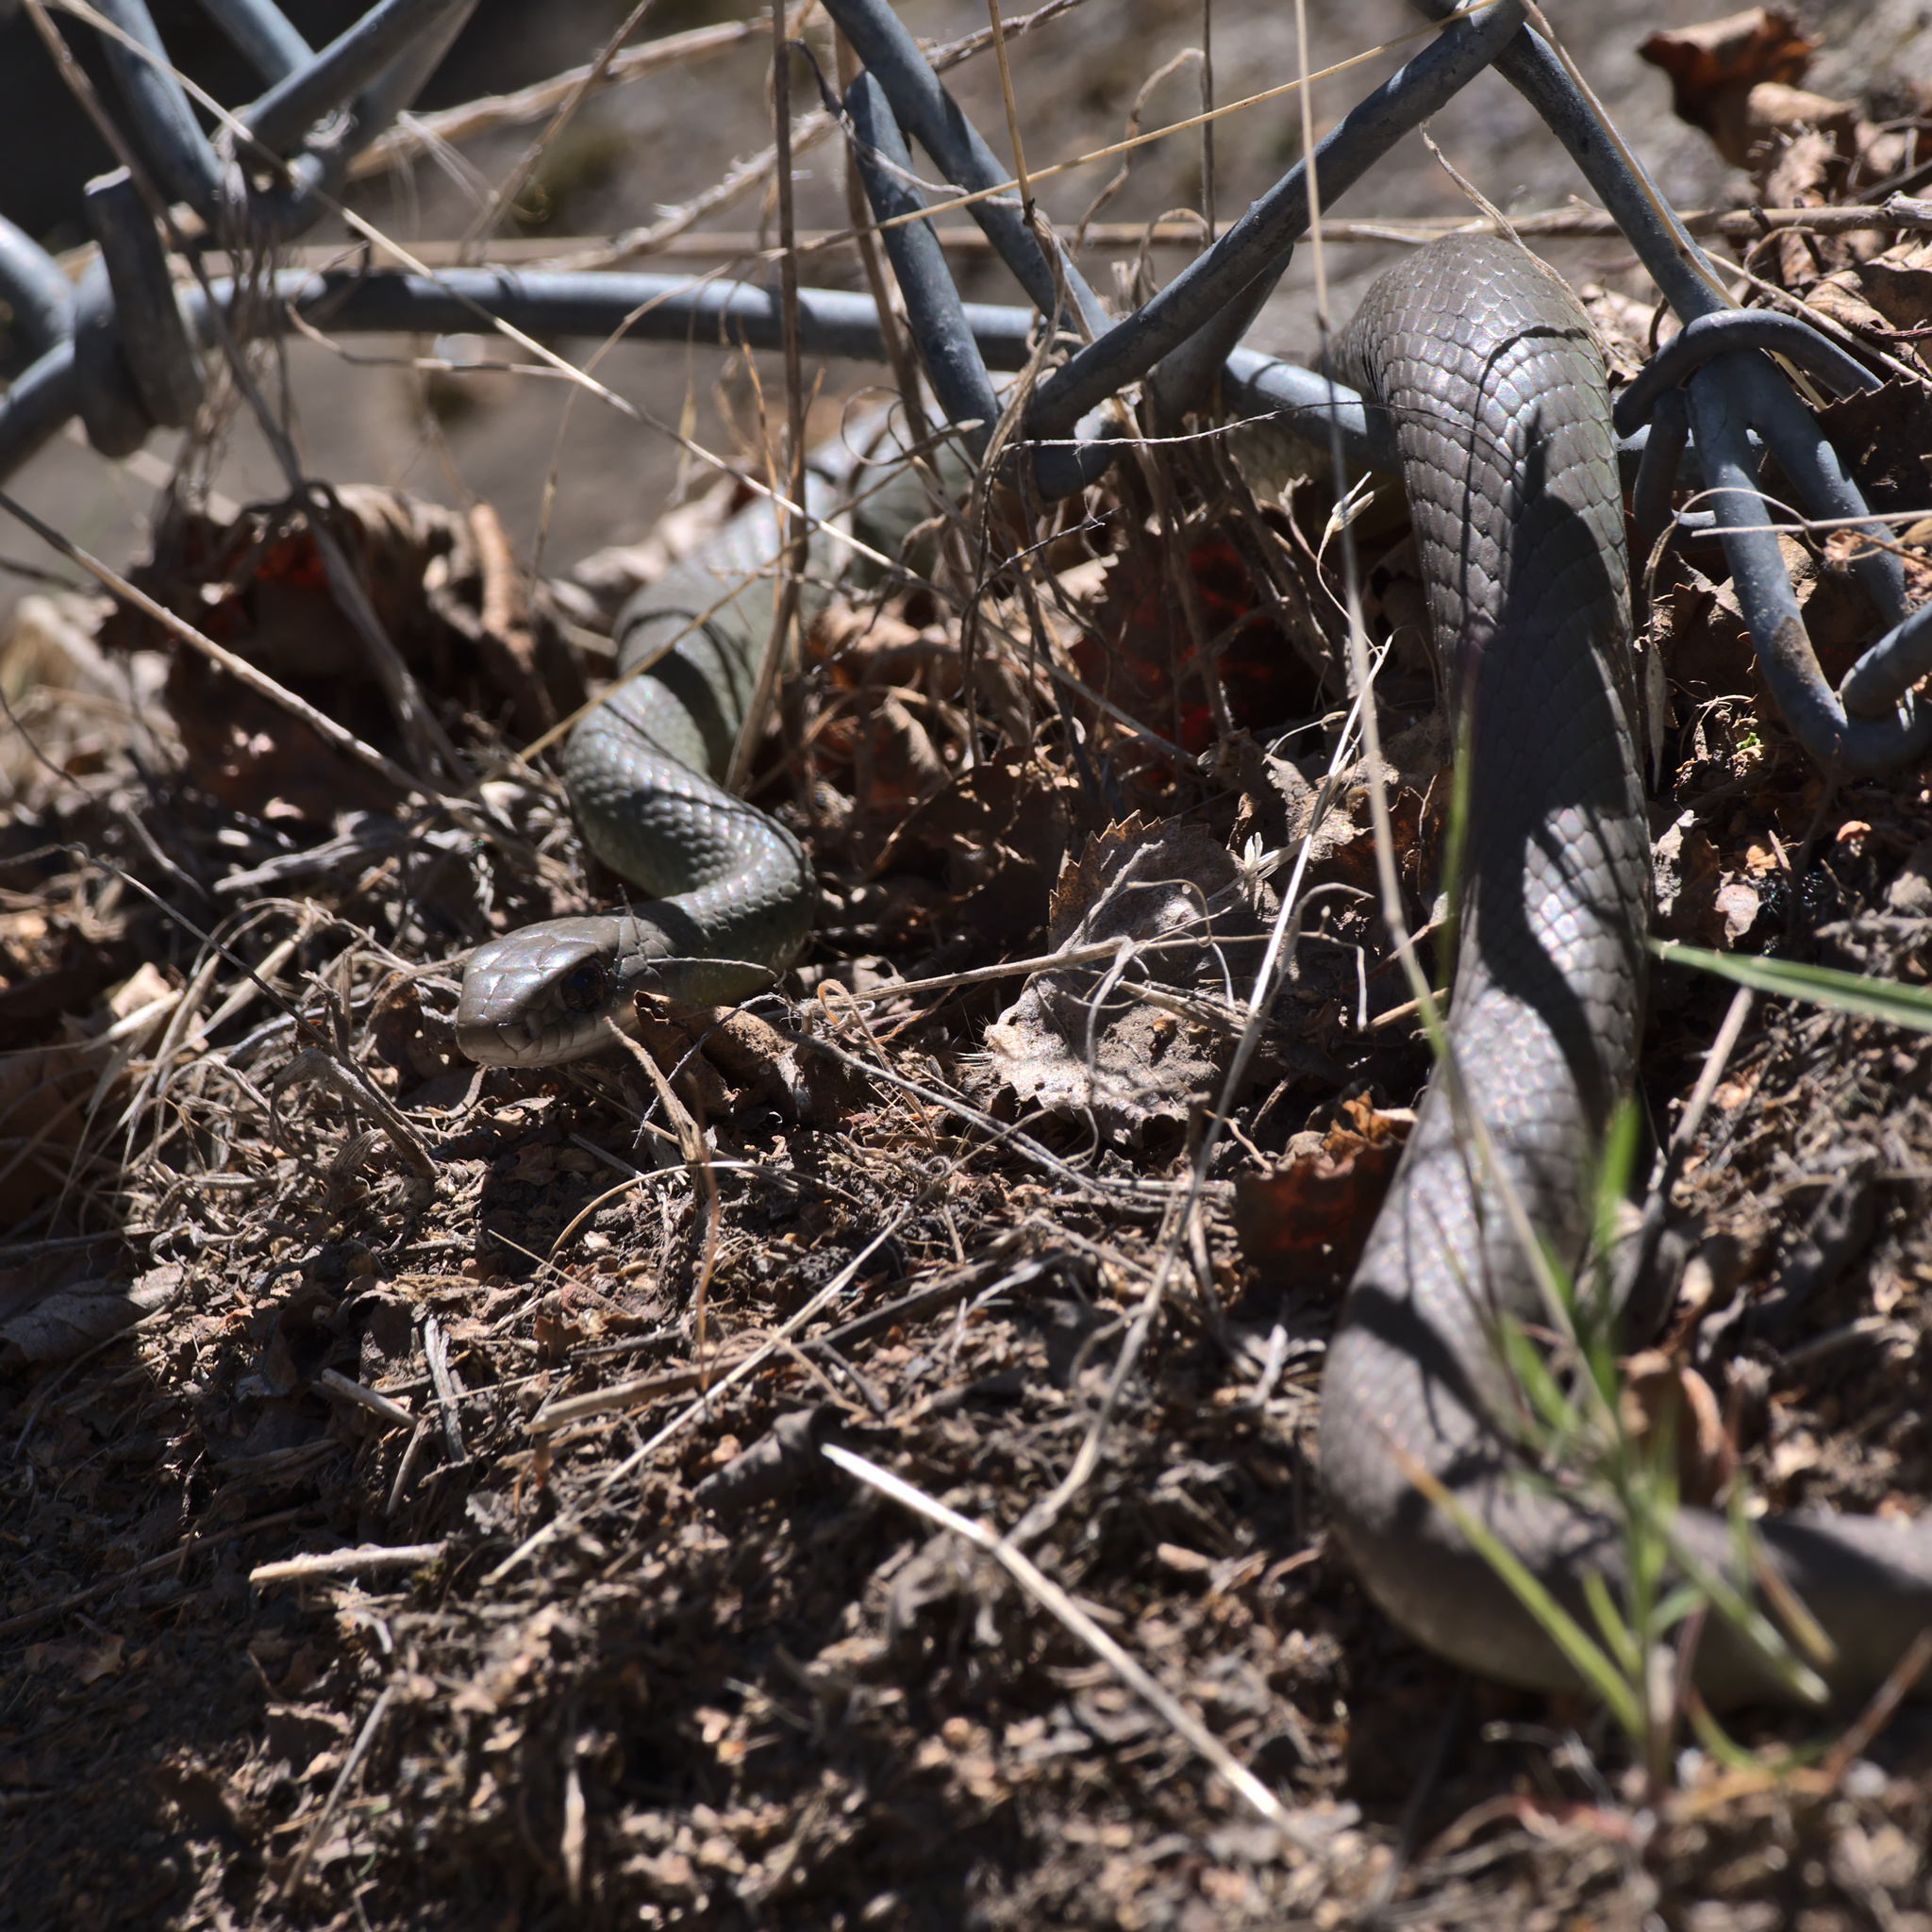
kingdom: Animalia
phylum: Chordata
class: Squamata
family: Colubridae
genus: Coluber
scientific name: Coluber constrictor
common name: Eastern racer
